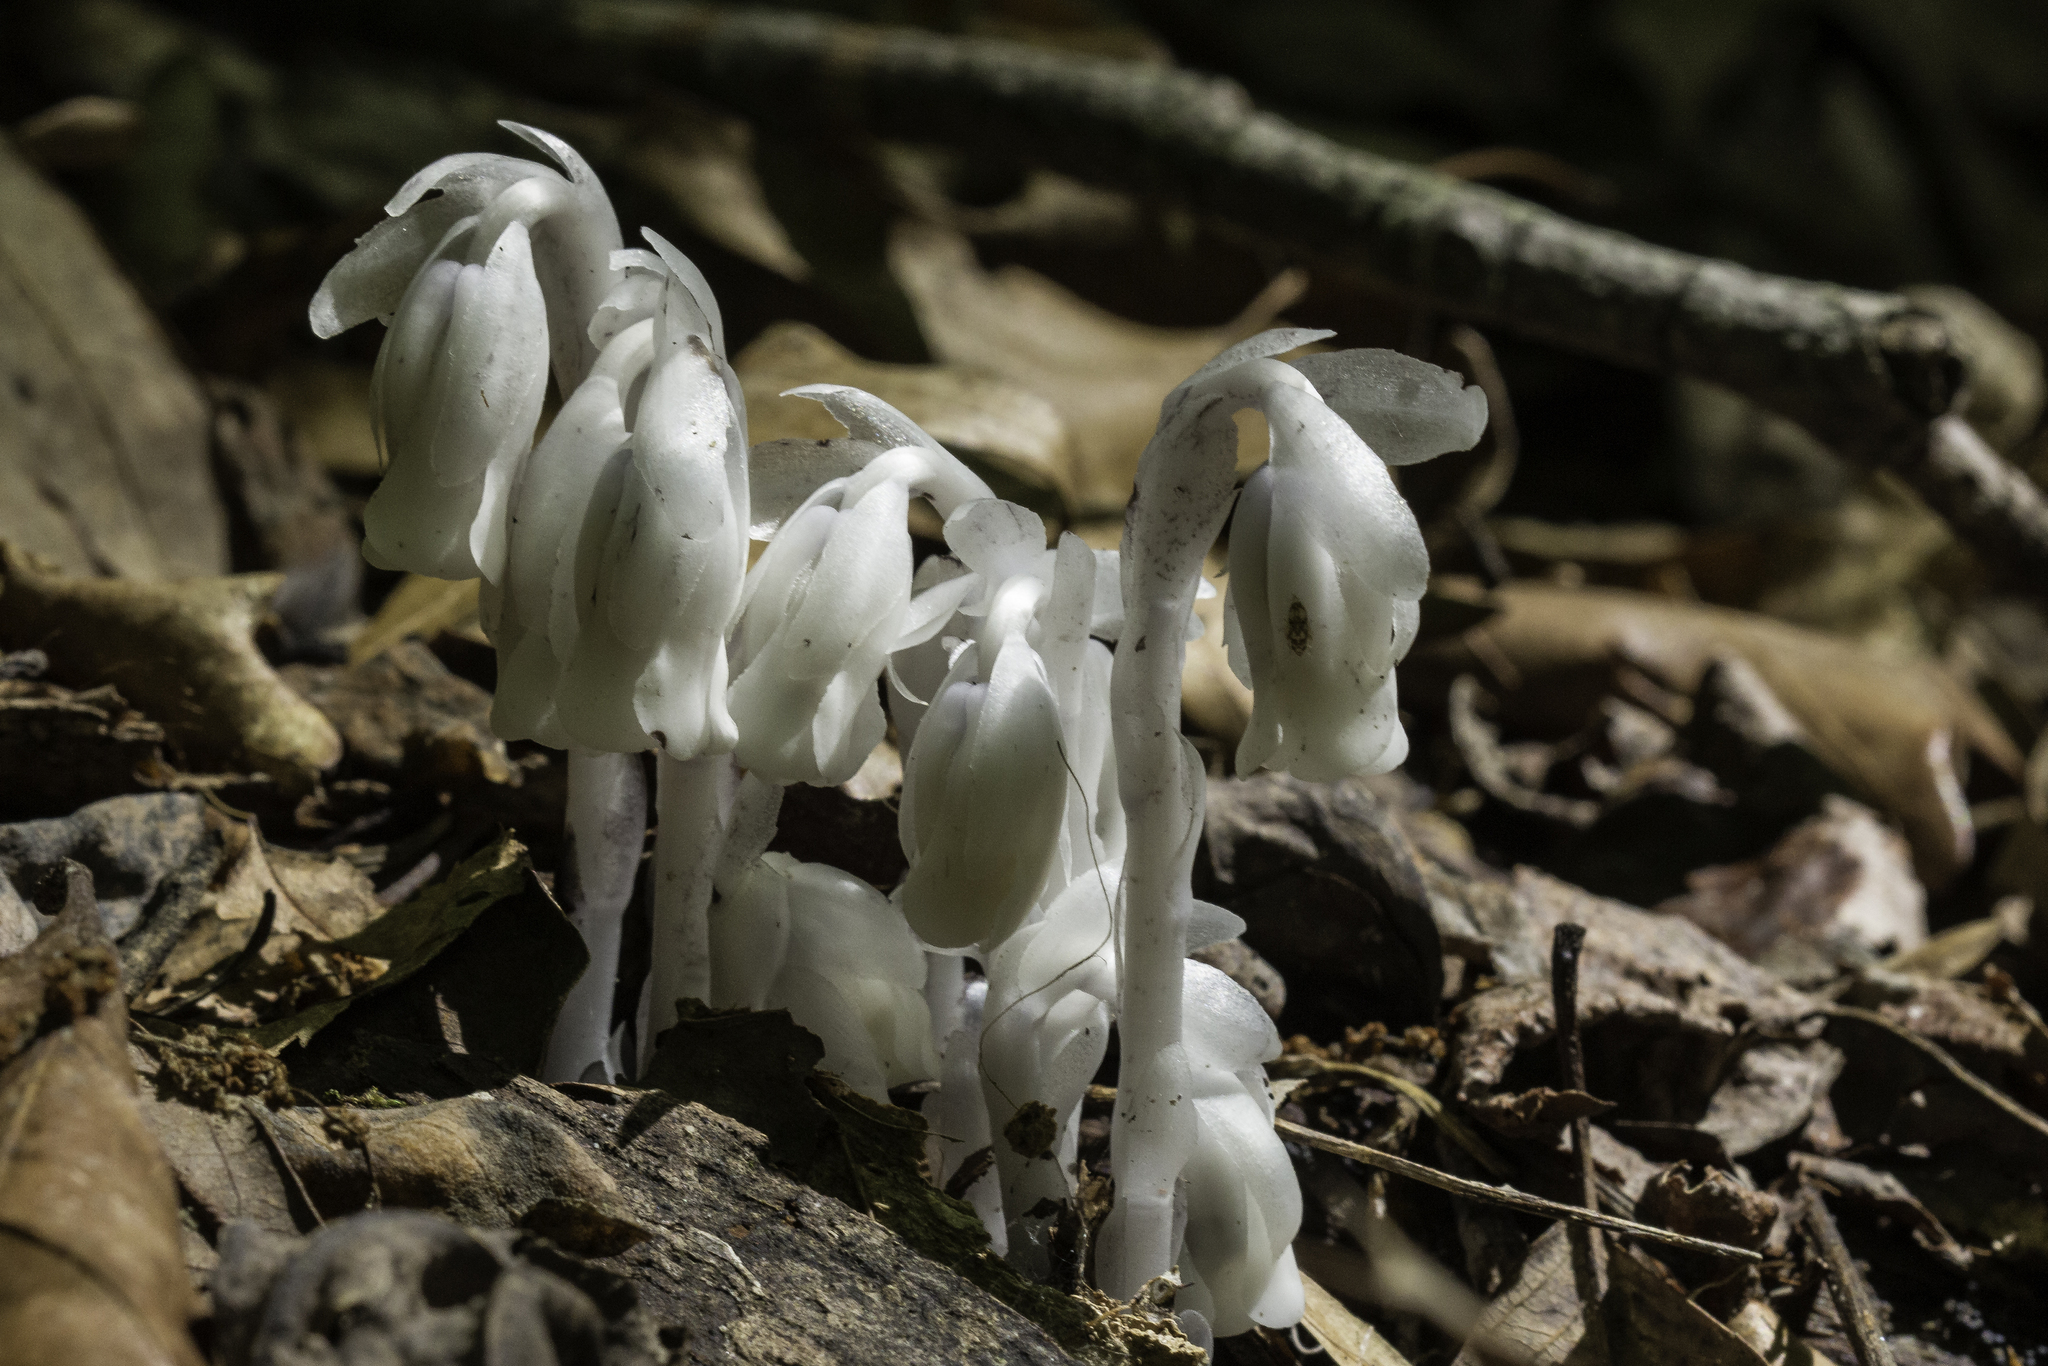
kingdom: Plantae
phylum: Tracheophyta
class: Magnoliopsida
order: Ericales
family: Ericaceae
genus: Monotropa
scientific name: Monotropa uniflora
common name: Convulsion root
